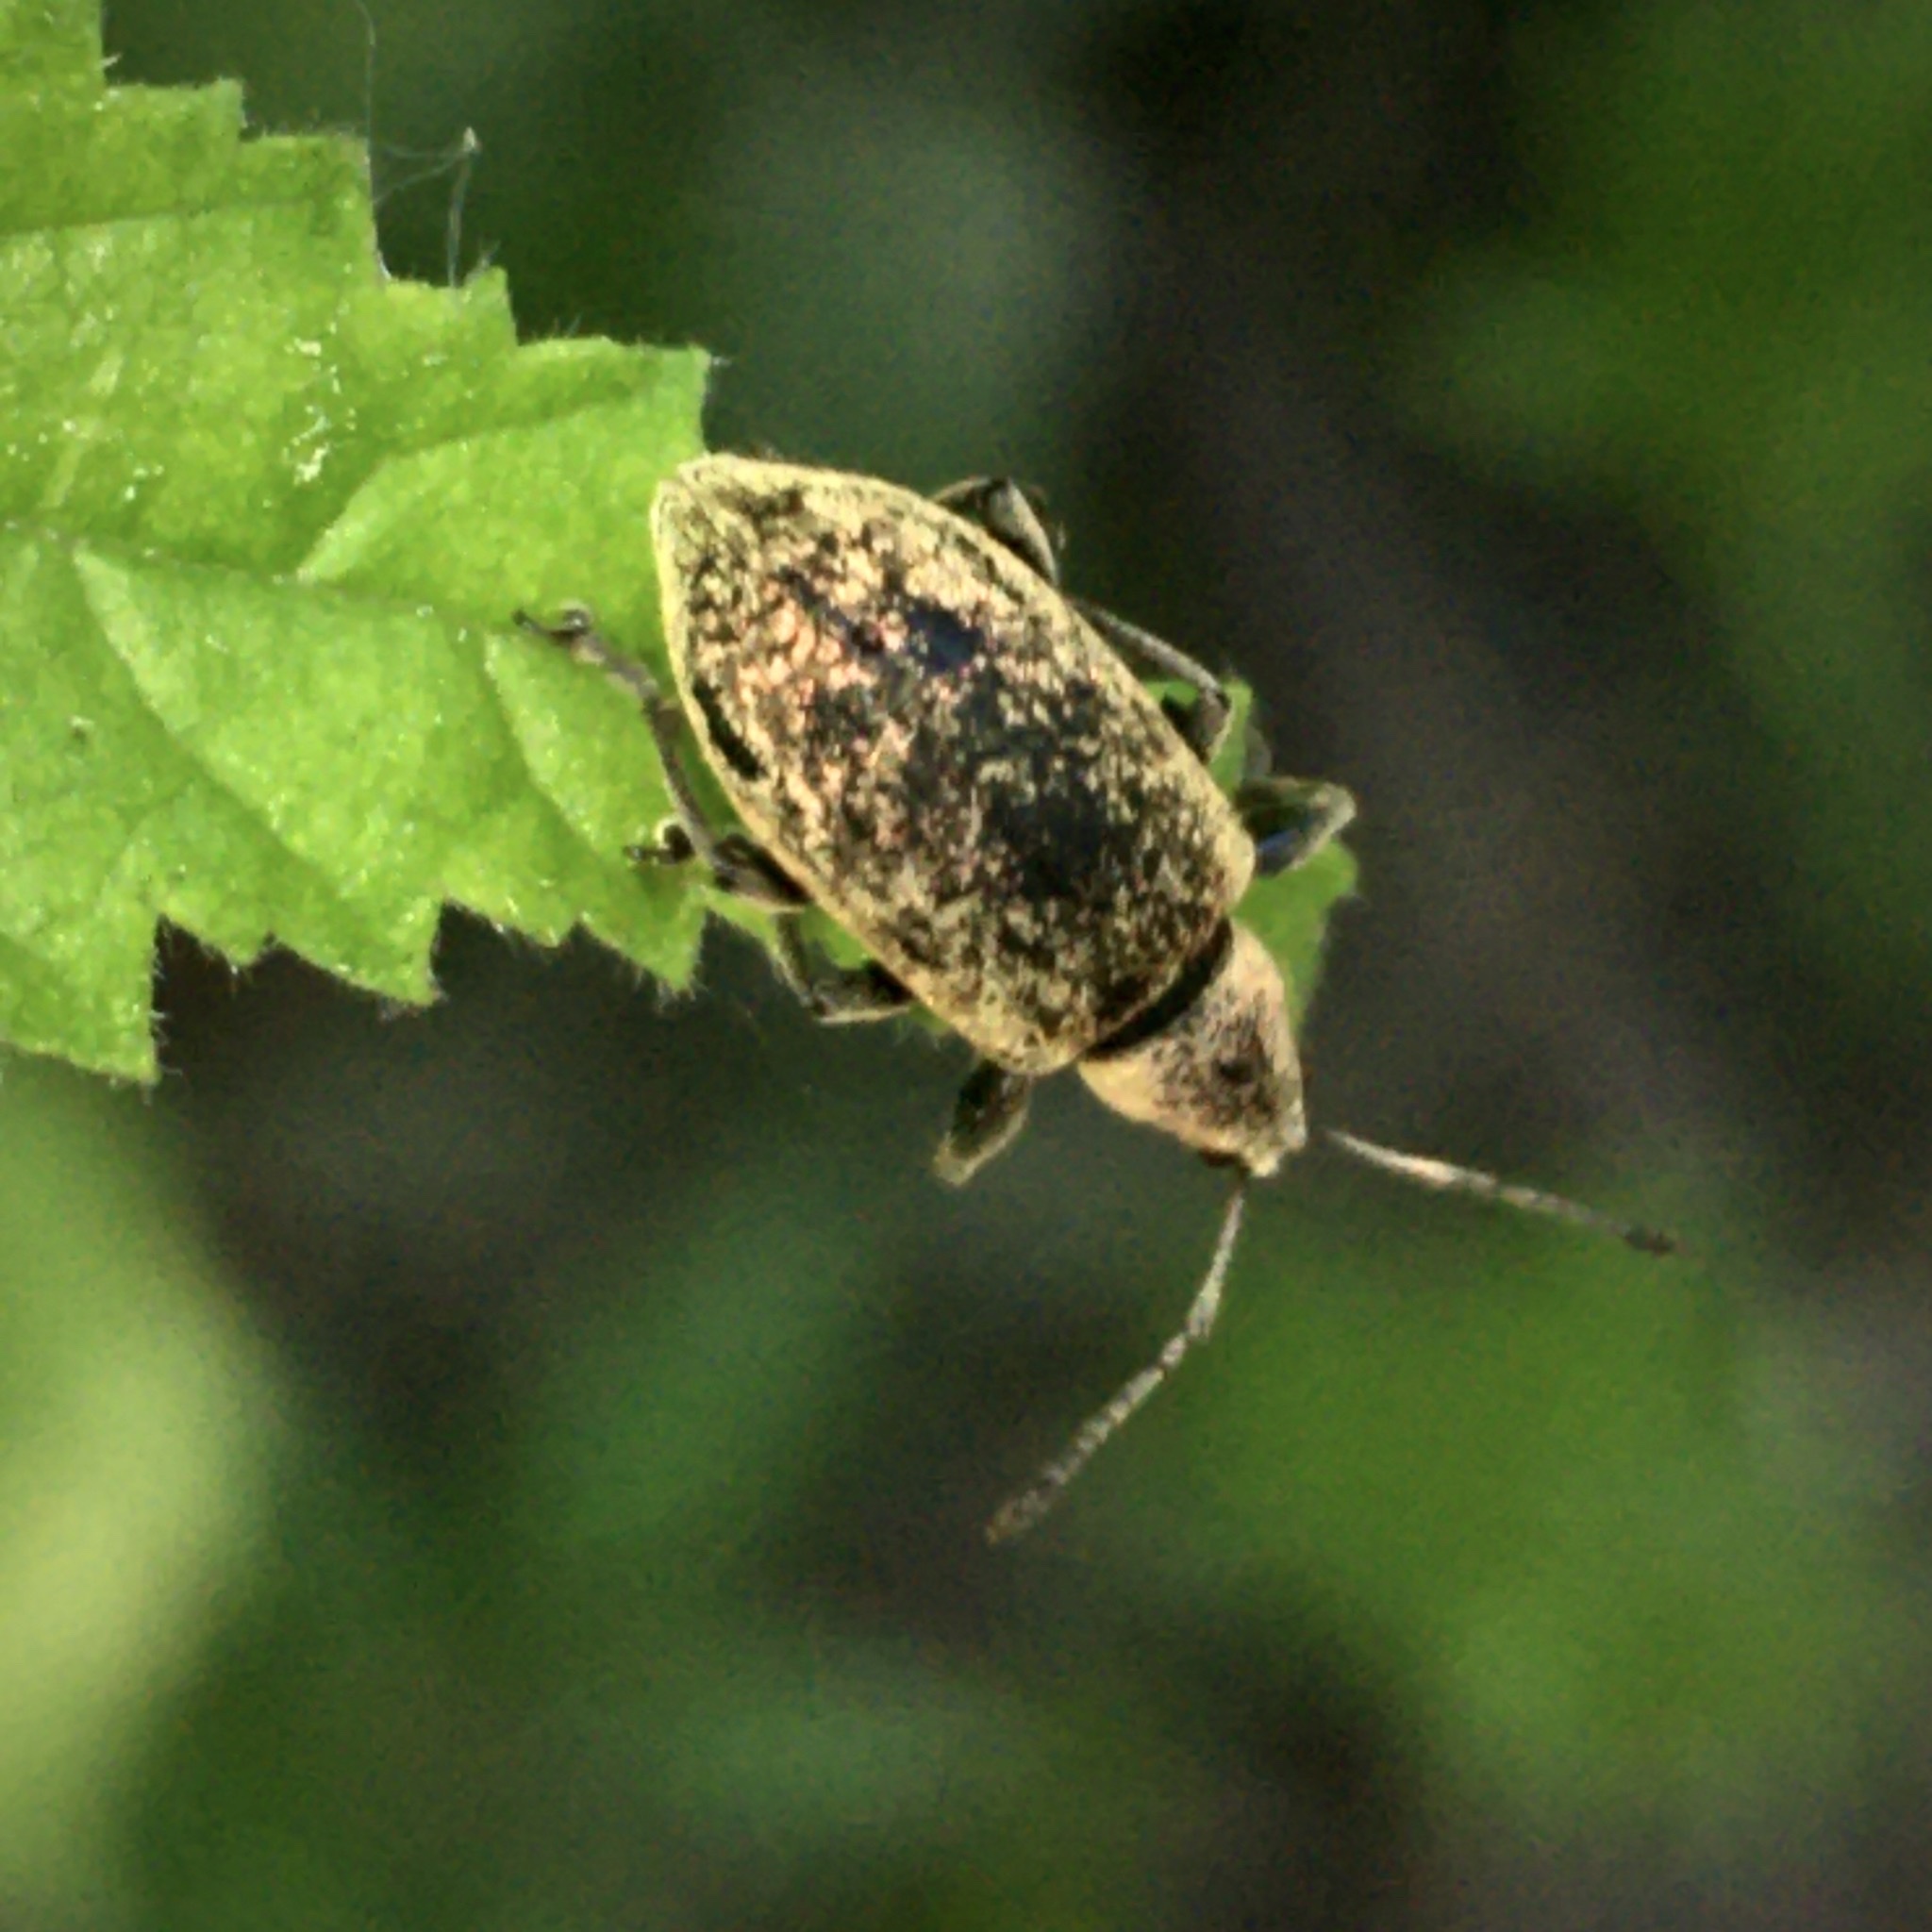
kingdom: Animalia
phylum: Arthropoda
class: Insecta
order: Coleoptera
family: Curculionidae
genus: Phyllobius
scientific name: Phyllobius
